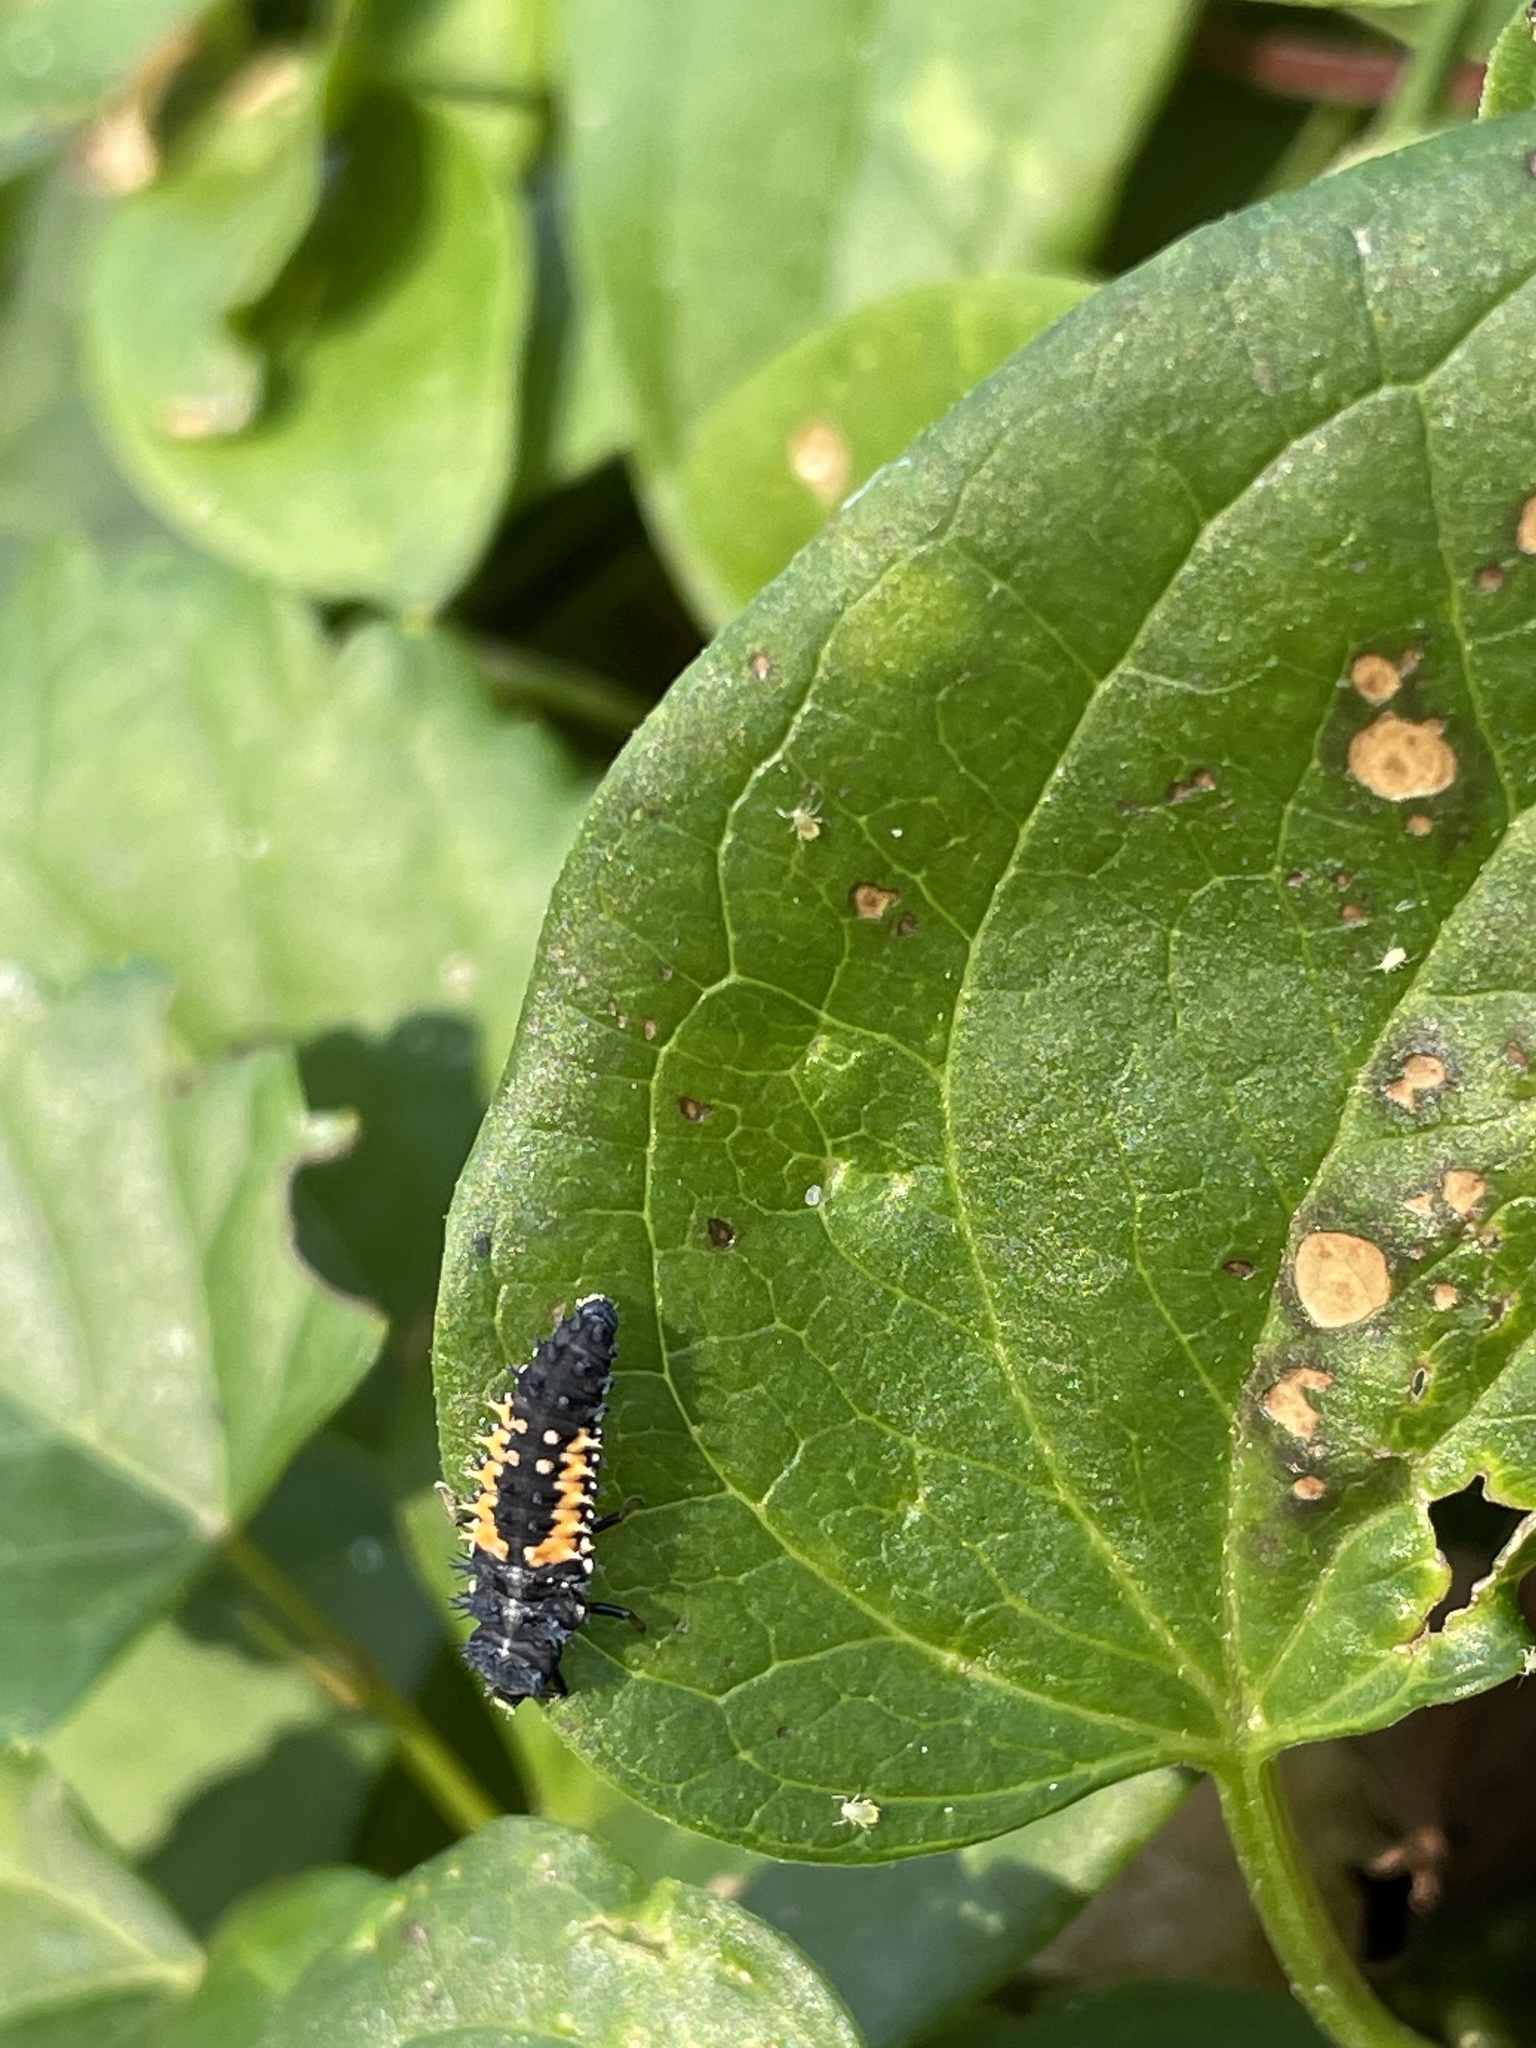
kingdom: Animalia
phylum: Arthropoda
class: Insecta
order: Coleoptera
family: Coccinellidae
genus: Harmonia
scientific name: Harmonia axyridis
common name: Harlequin ladybird
